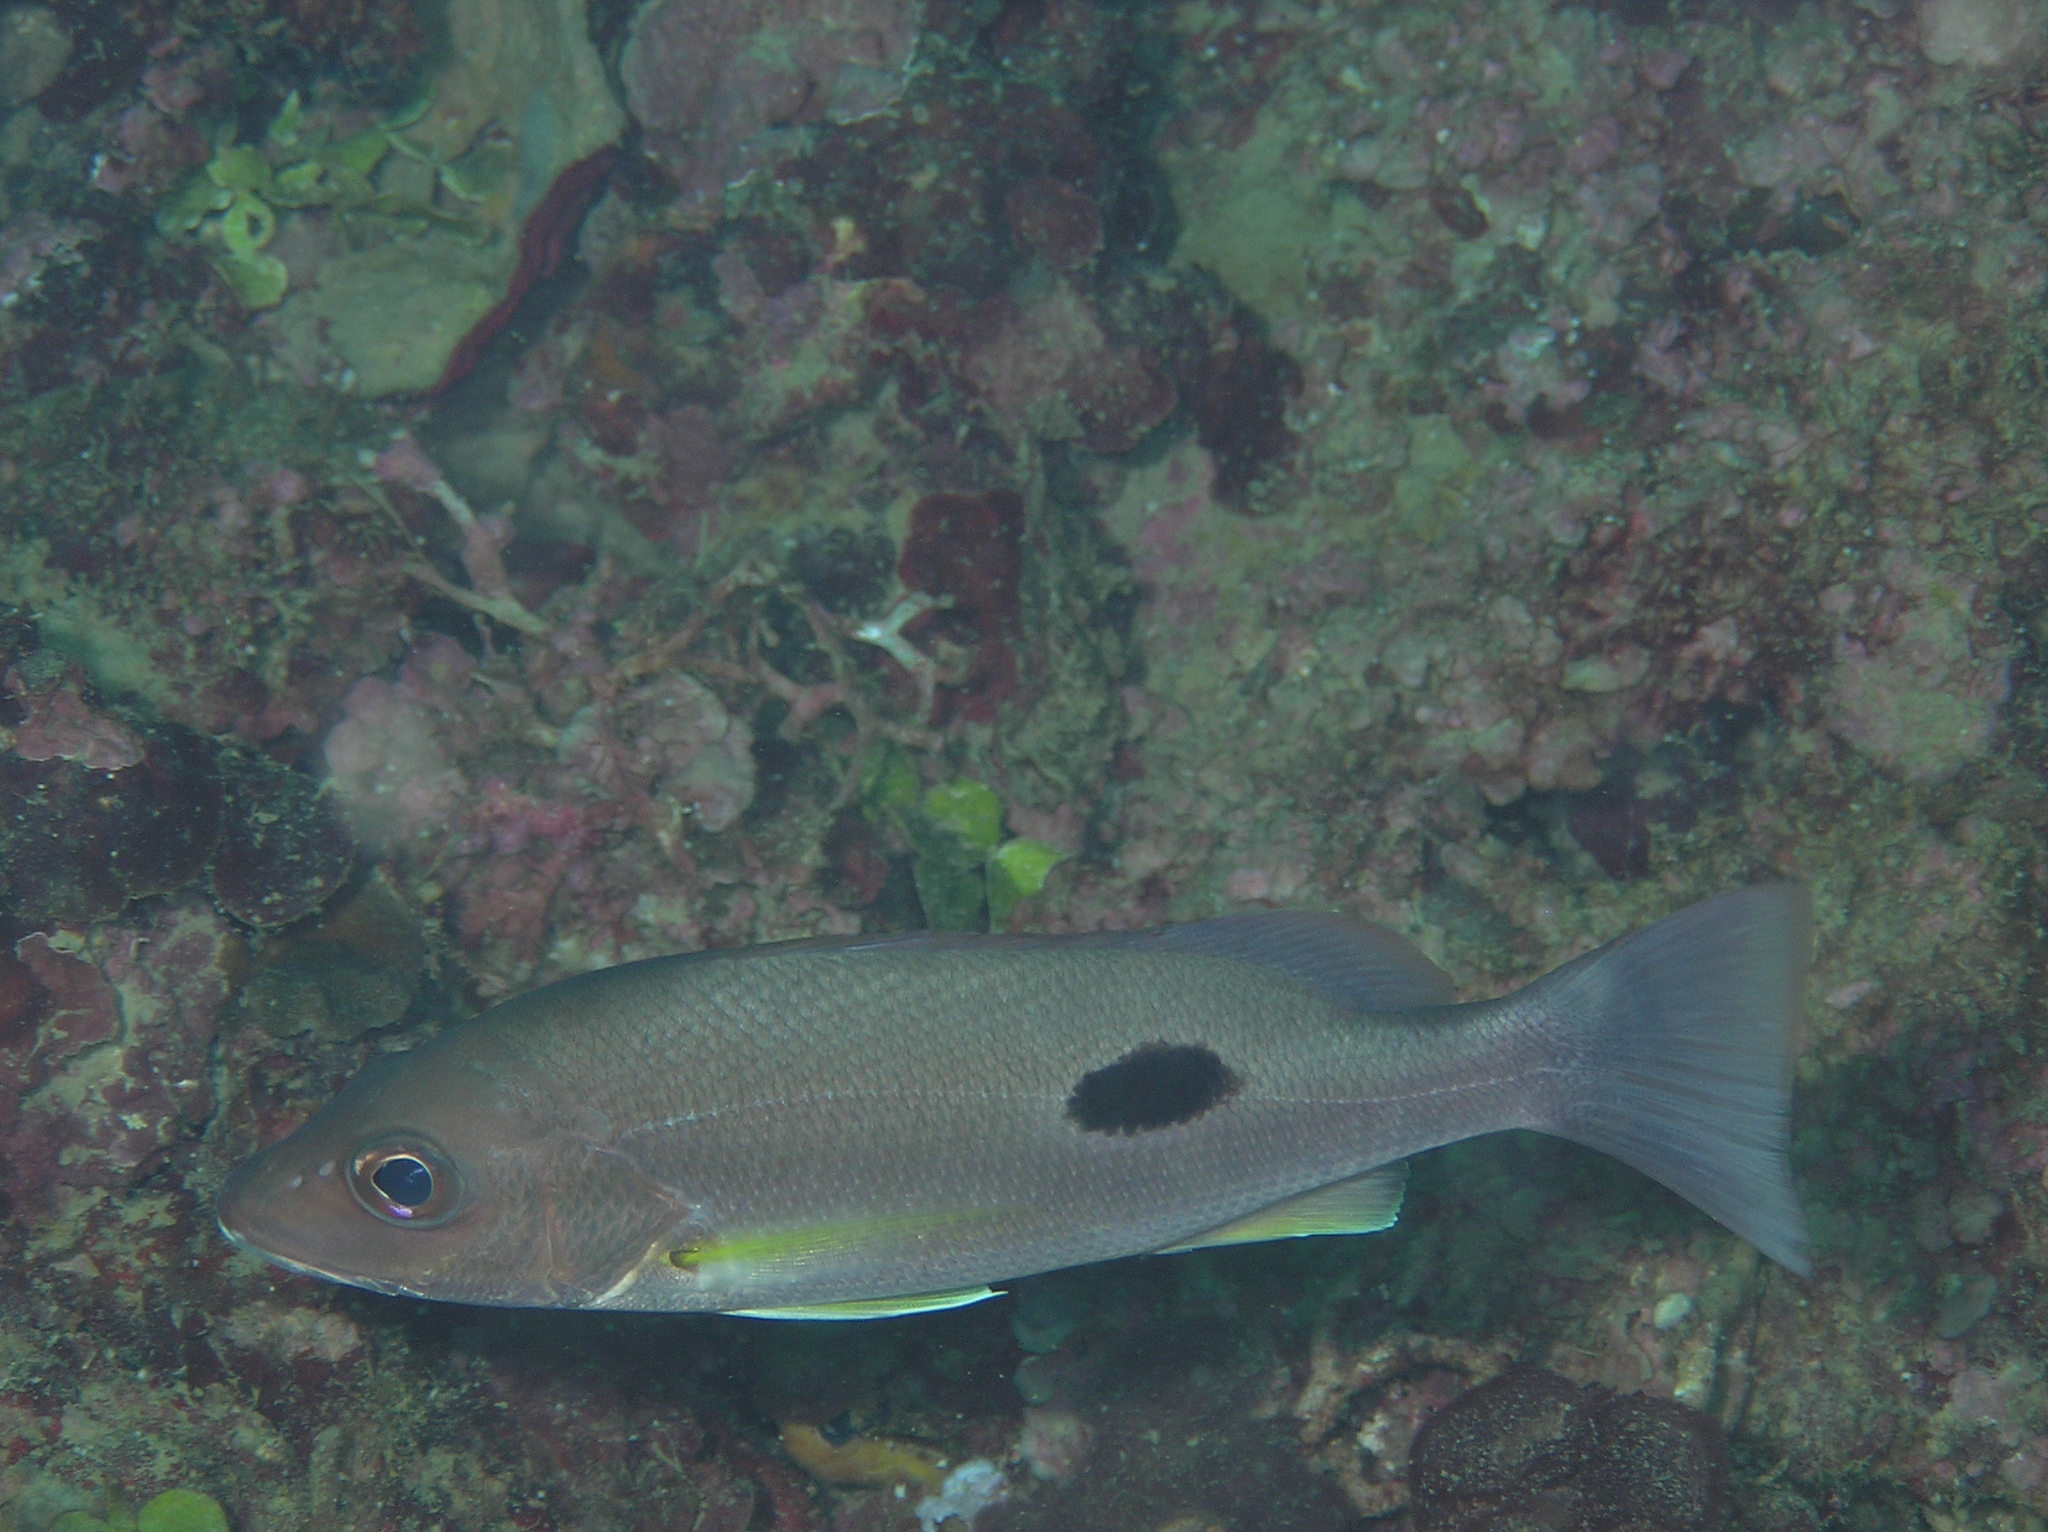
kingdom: Animalia
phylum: Chordata
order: Perciformes
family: Lutjanidae
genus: Lutjanus
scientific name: Lutjanus russellii
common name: Russell's snapper
